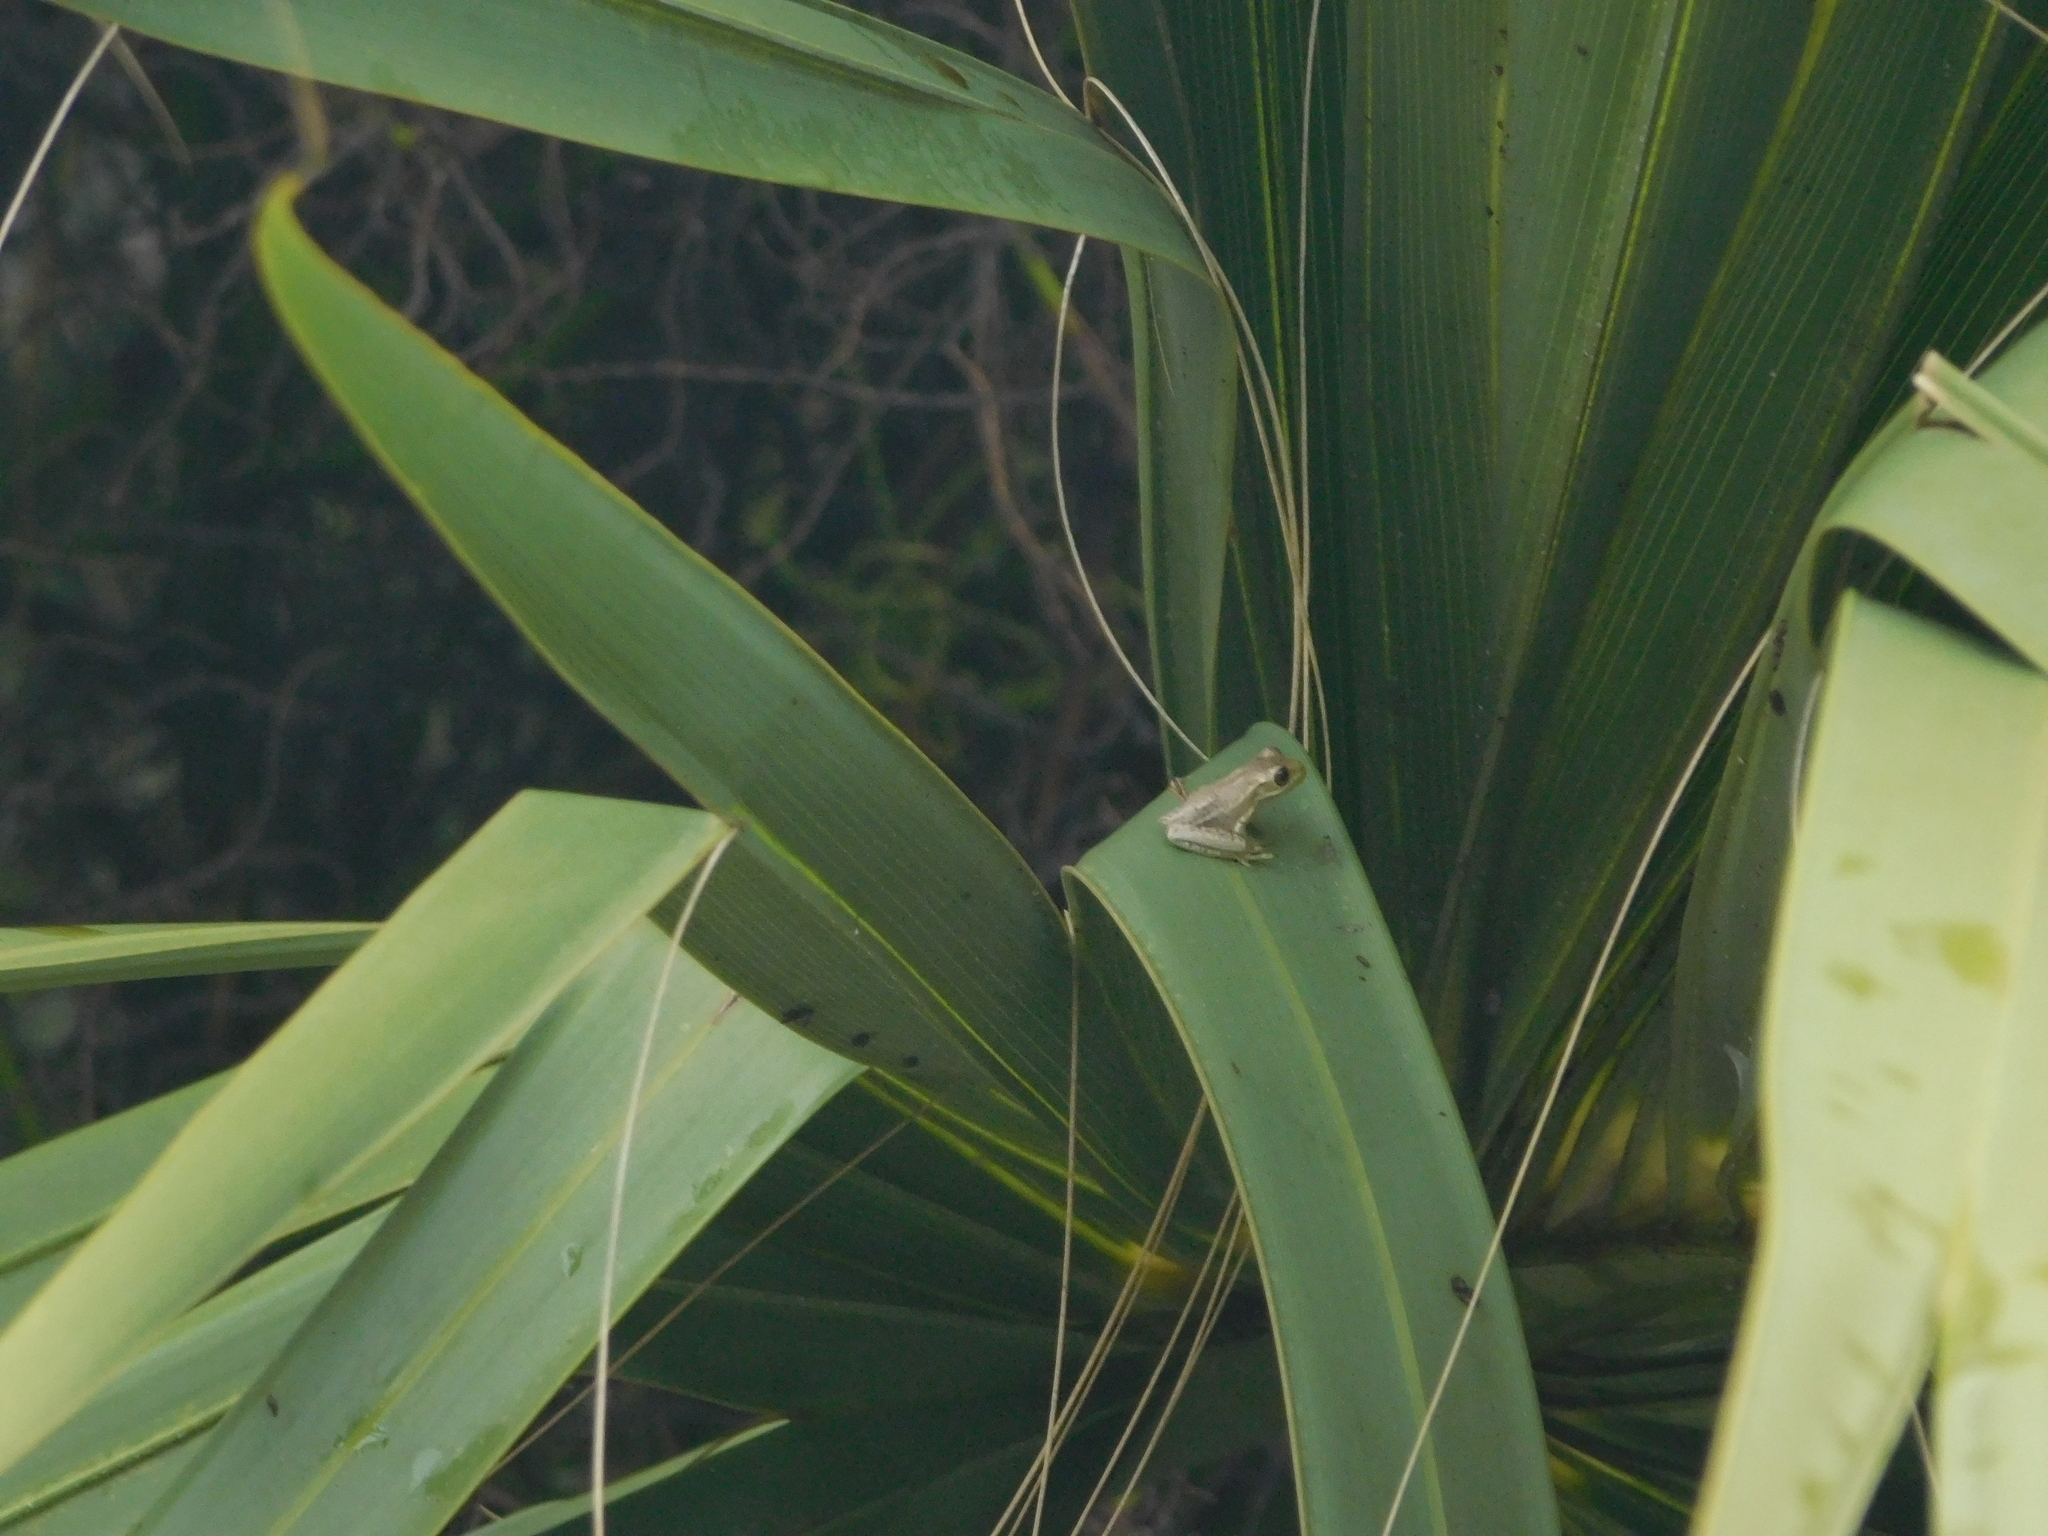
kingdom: Animalia
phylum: Chordata
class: Amphibia
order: Anura
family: Hylidae
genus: Osteopilus
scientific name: Osteopilus septentrionalis
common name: Cuban treefrog
